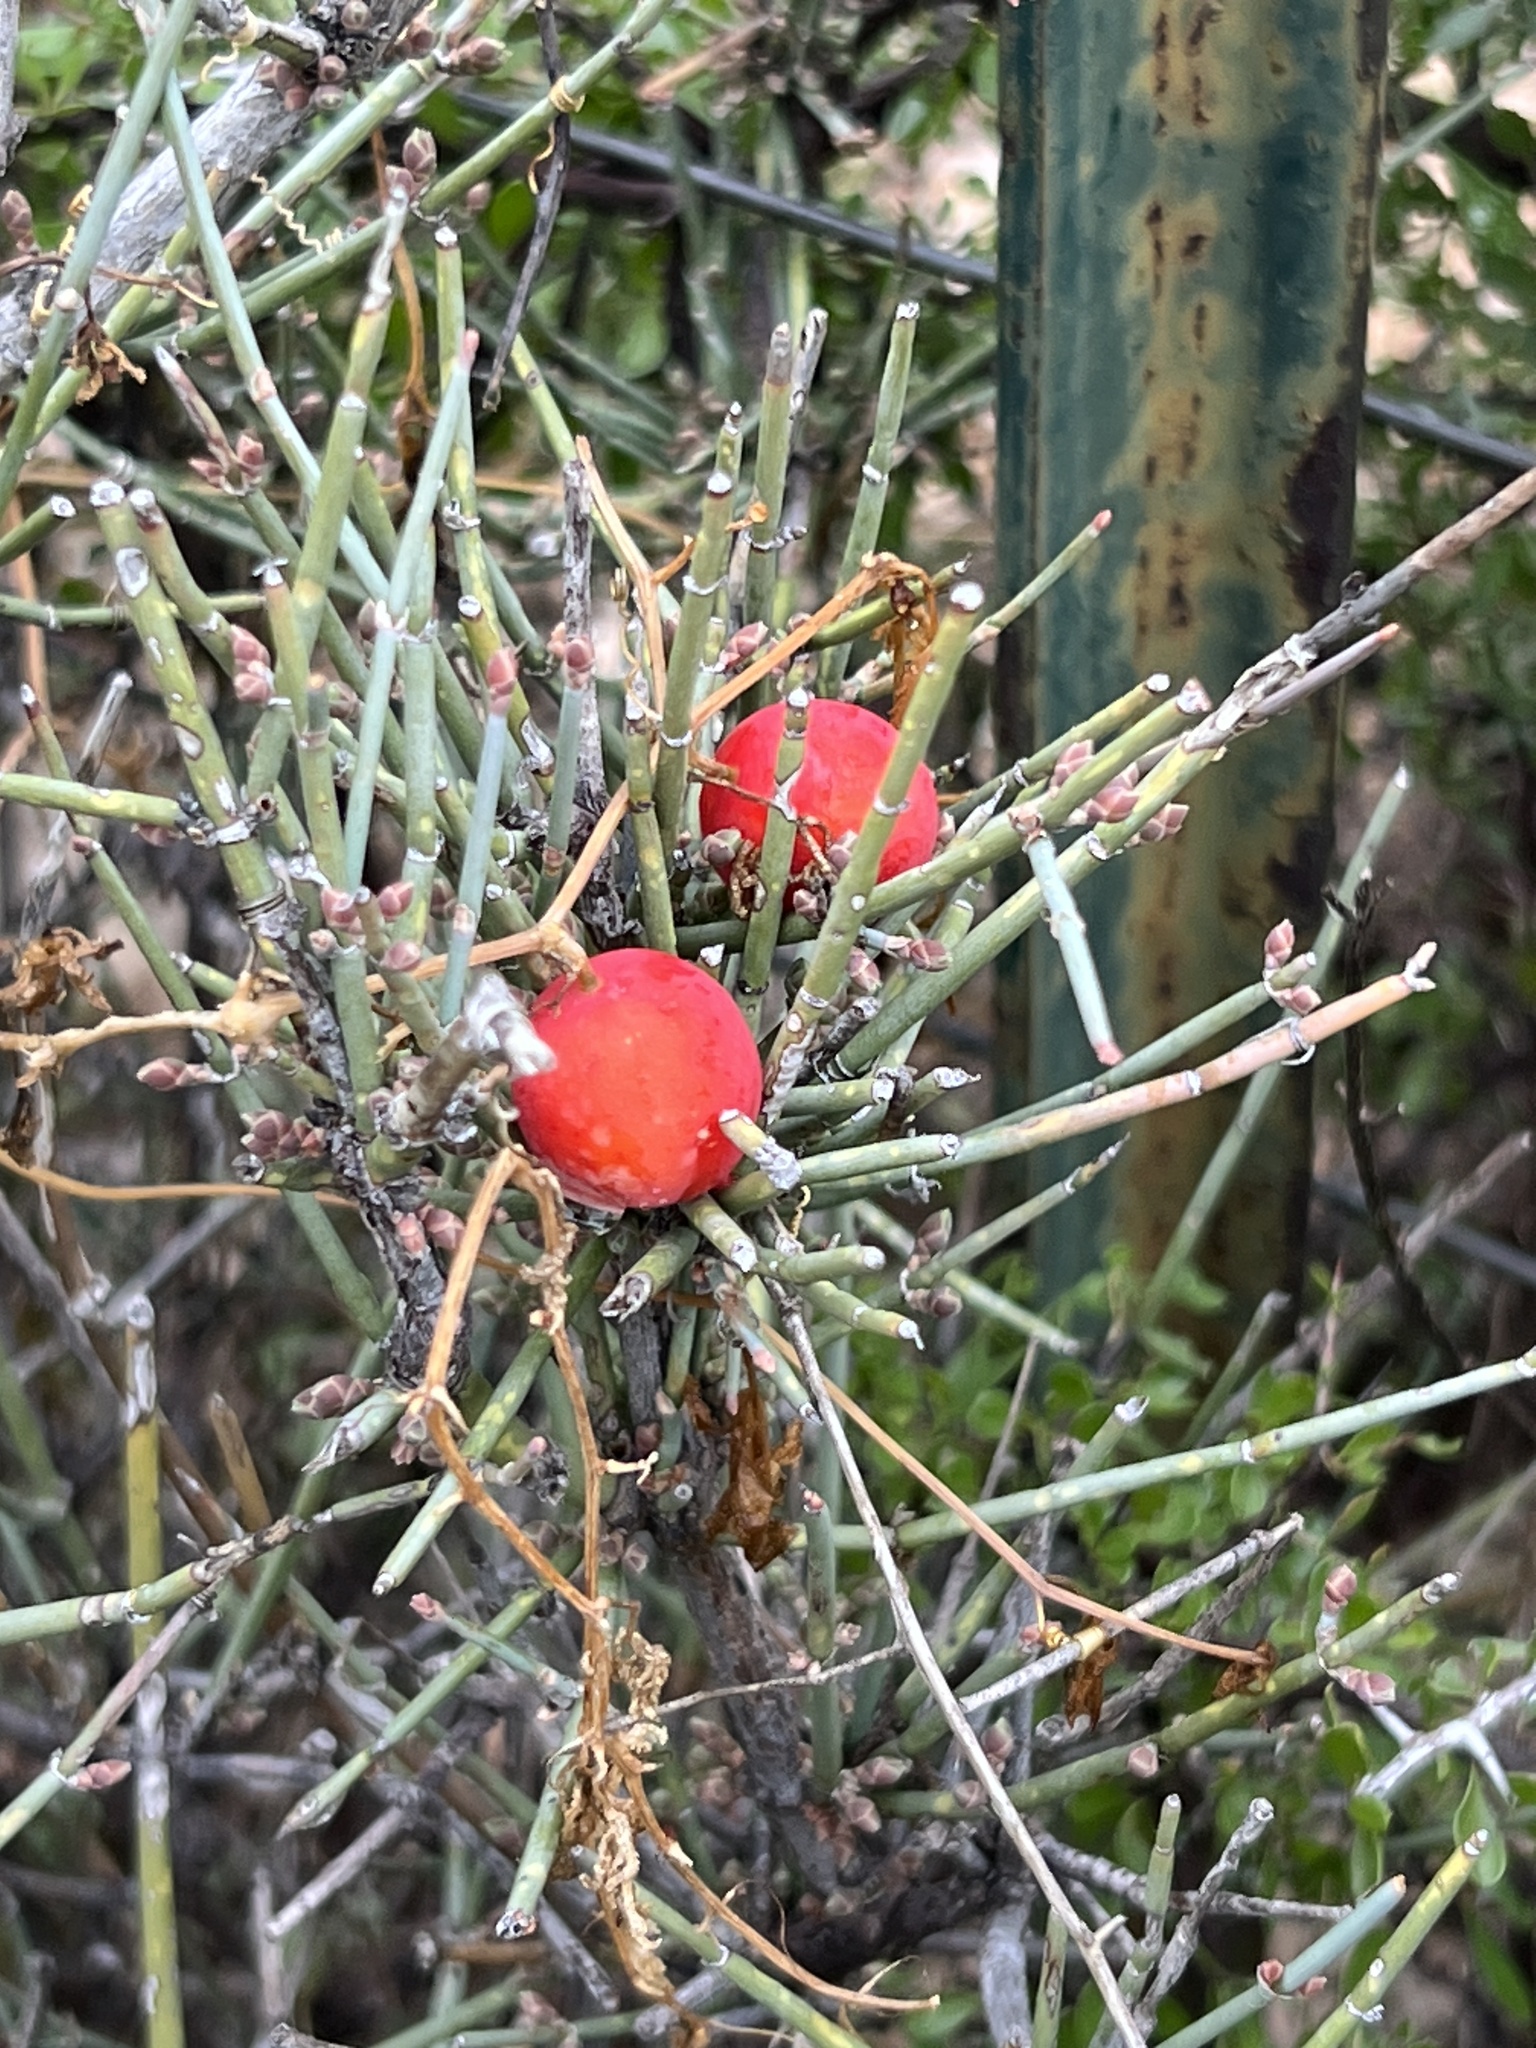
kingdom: Plantae
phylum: Tracheophyta
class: Magnoliopsida
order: Cucurbitales
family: Cucurbitaceae
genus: Ibervillea
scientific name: Ibervillea tenuisecta
